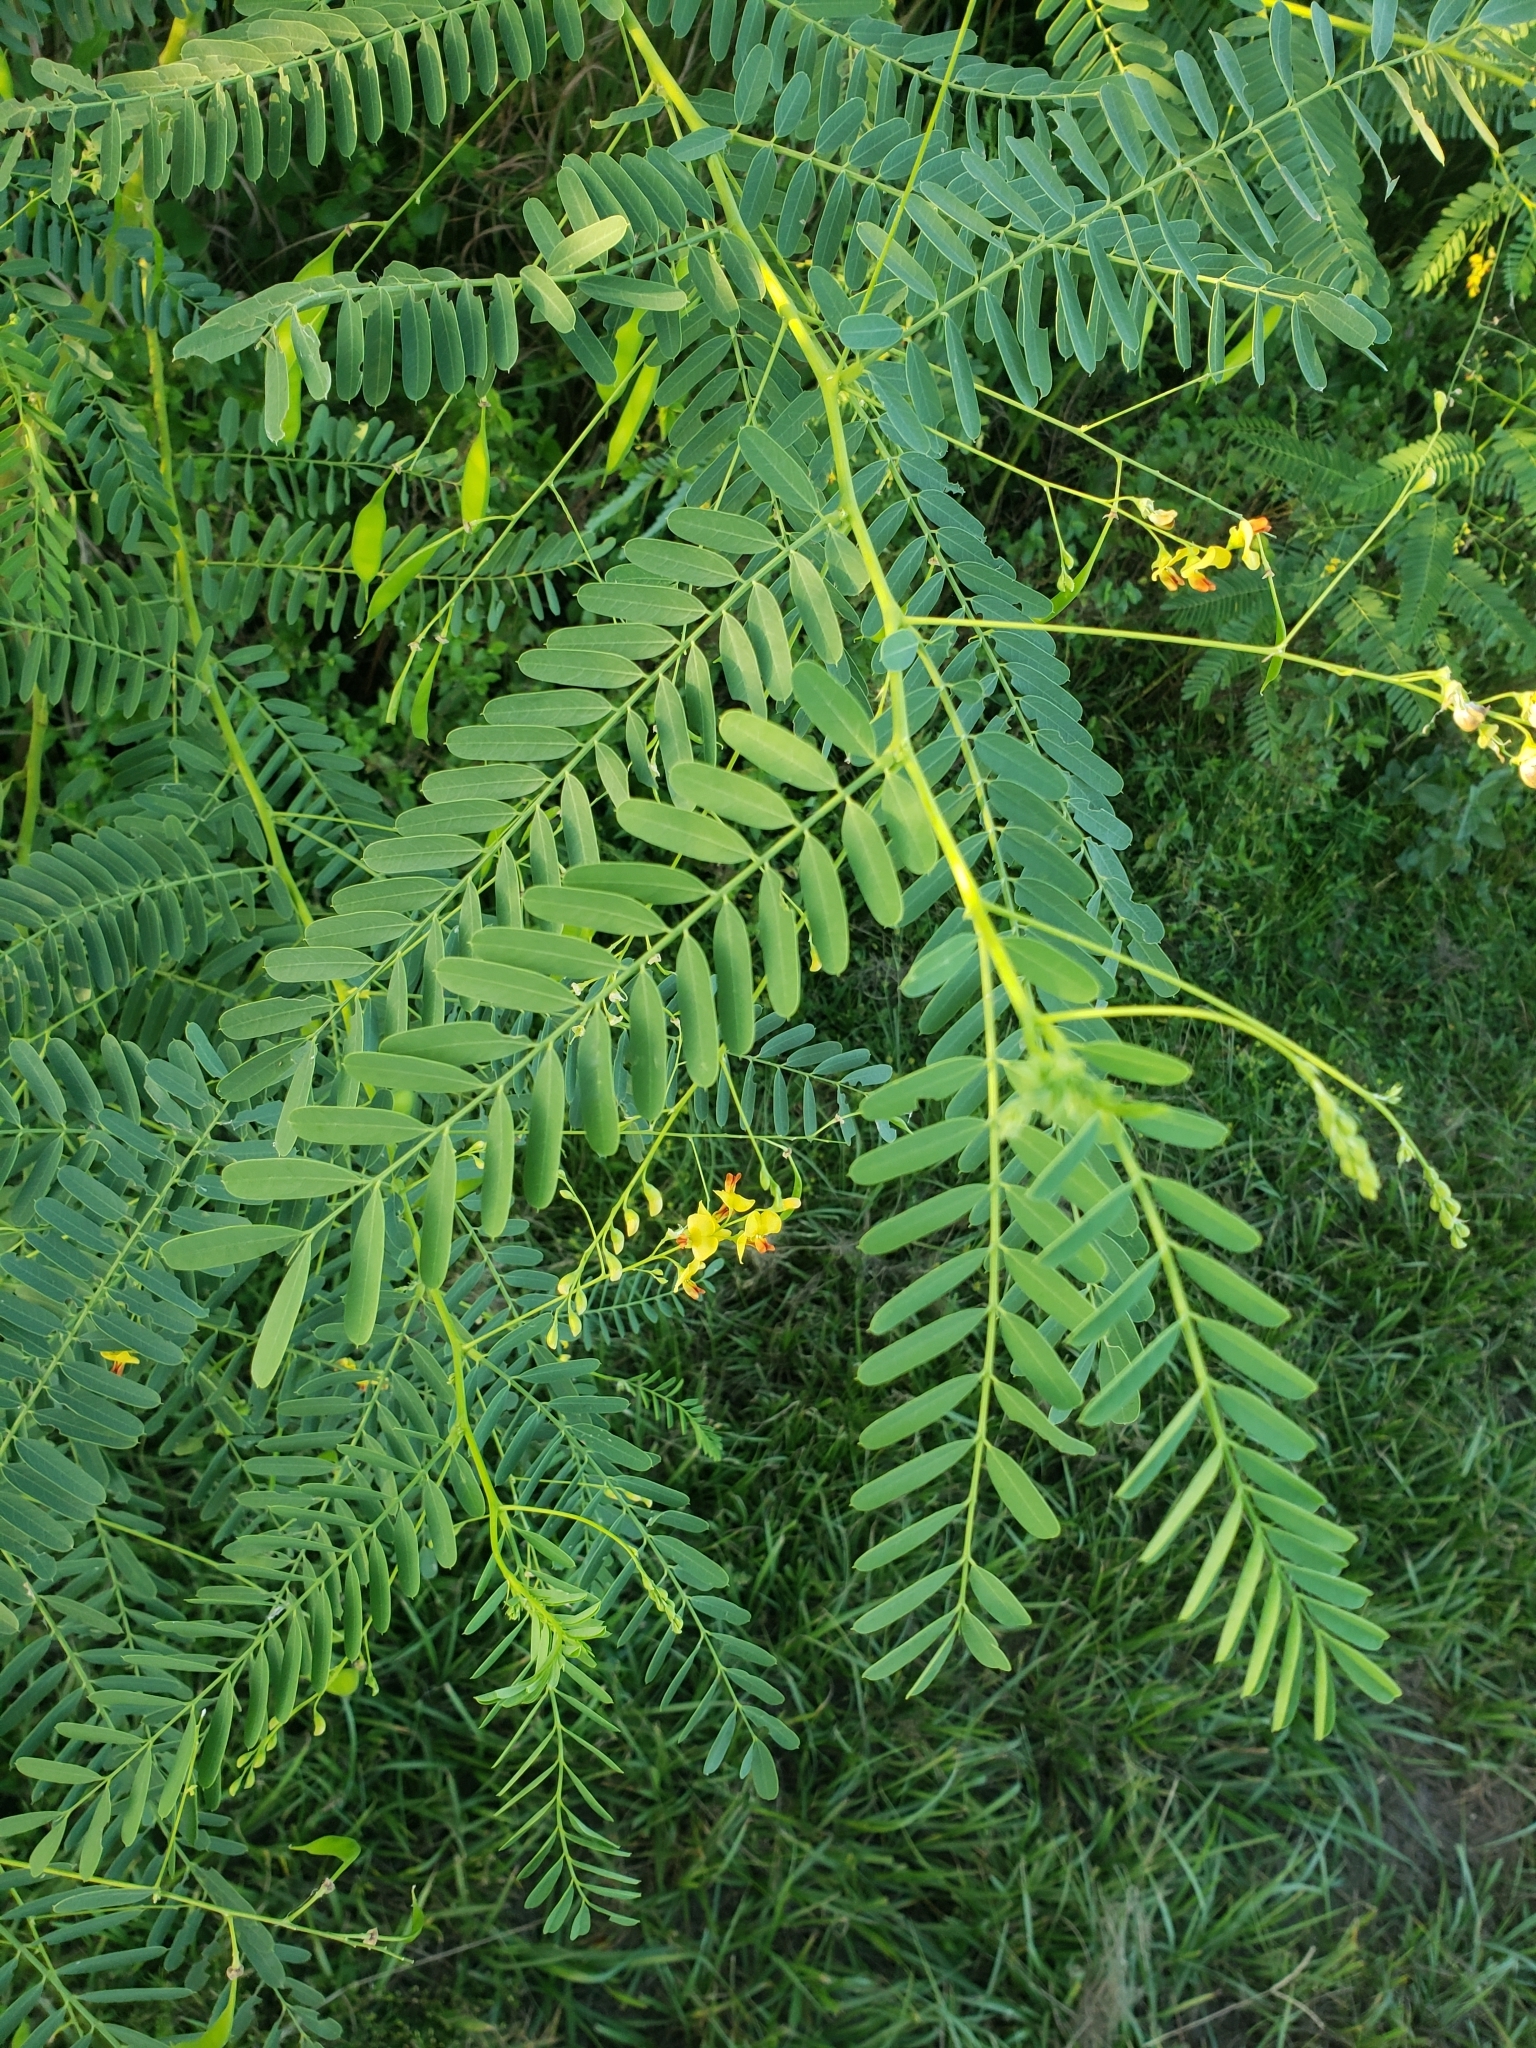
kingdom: Plantae
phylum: Tracheophyta
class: Magnoliopsida
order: Fabales
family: Fabaceae
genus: Sesbania
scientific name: Sesbania vesicaria
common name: Bagpod
